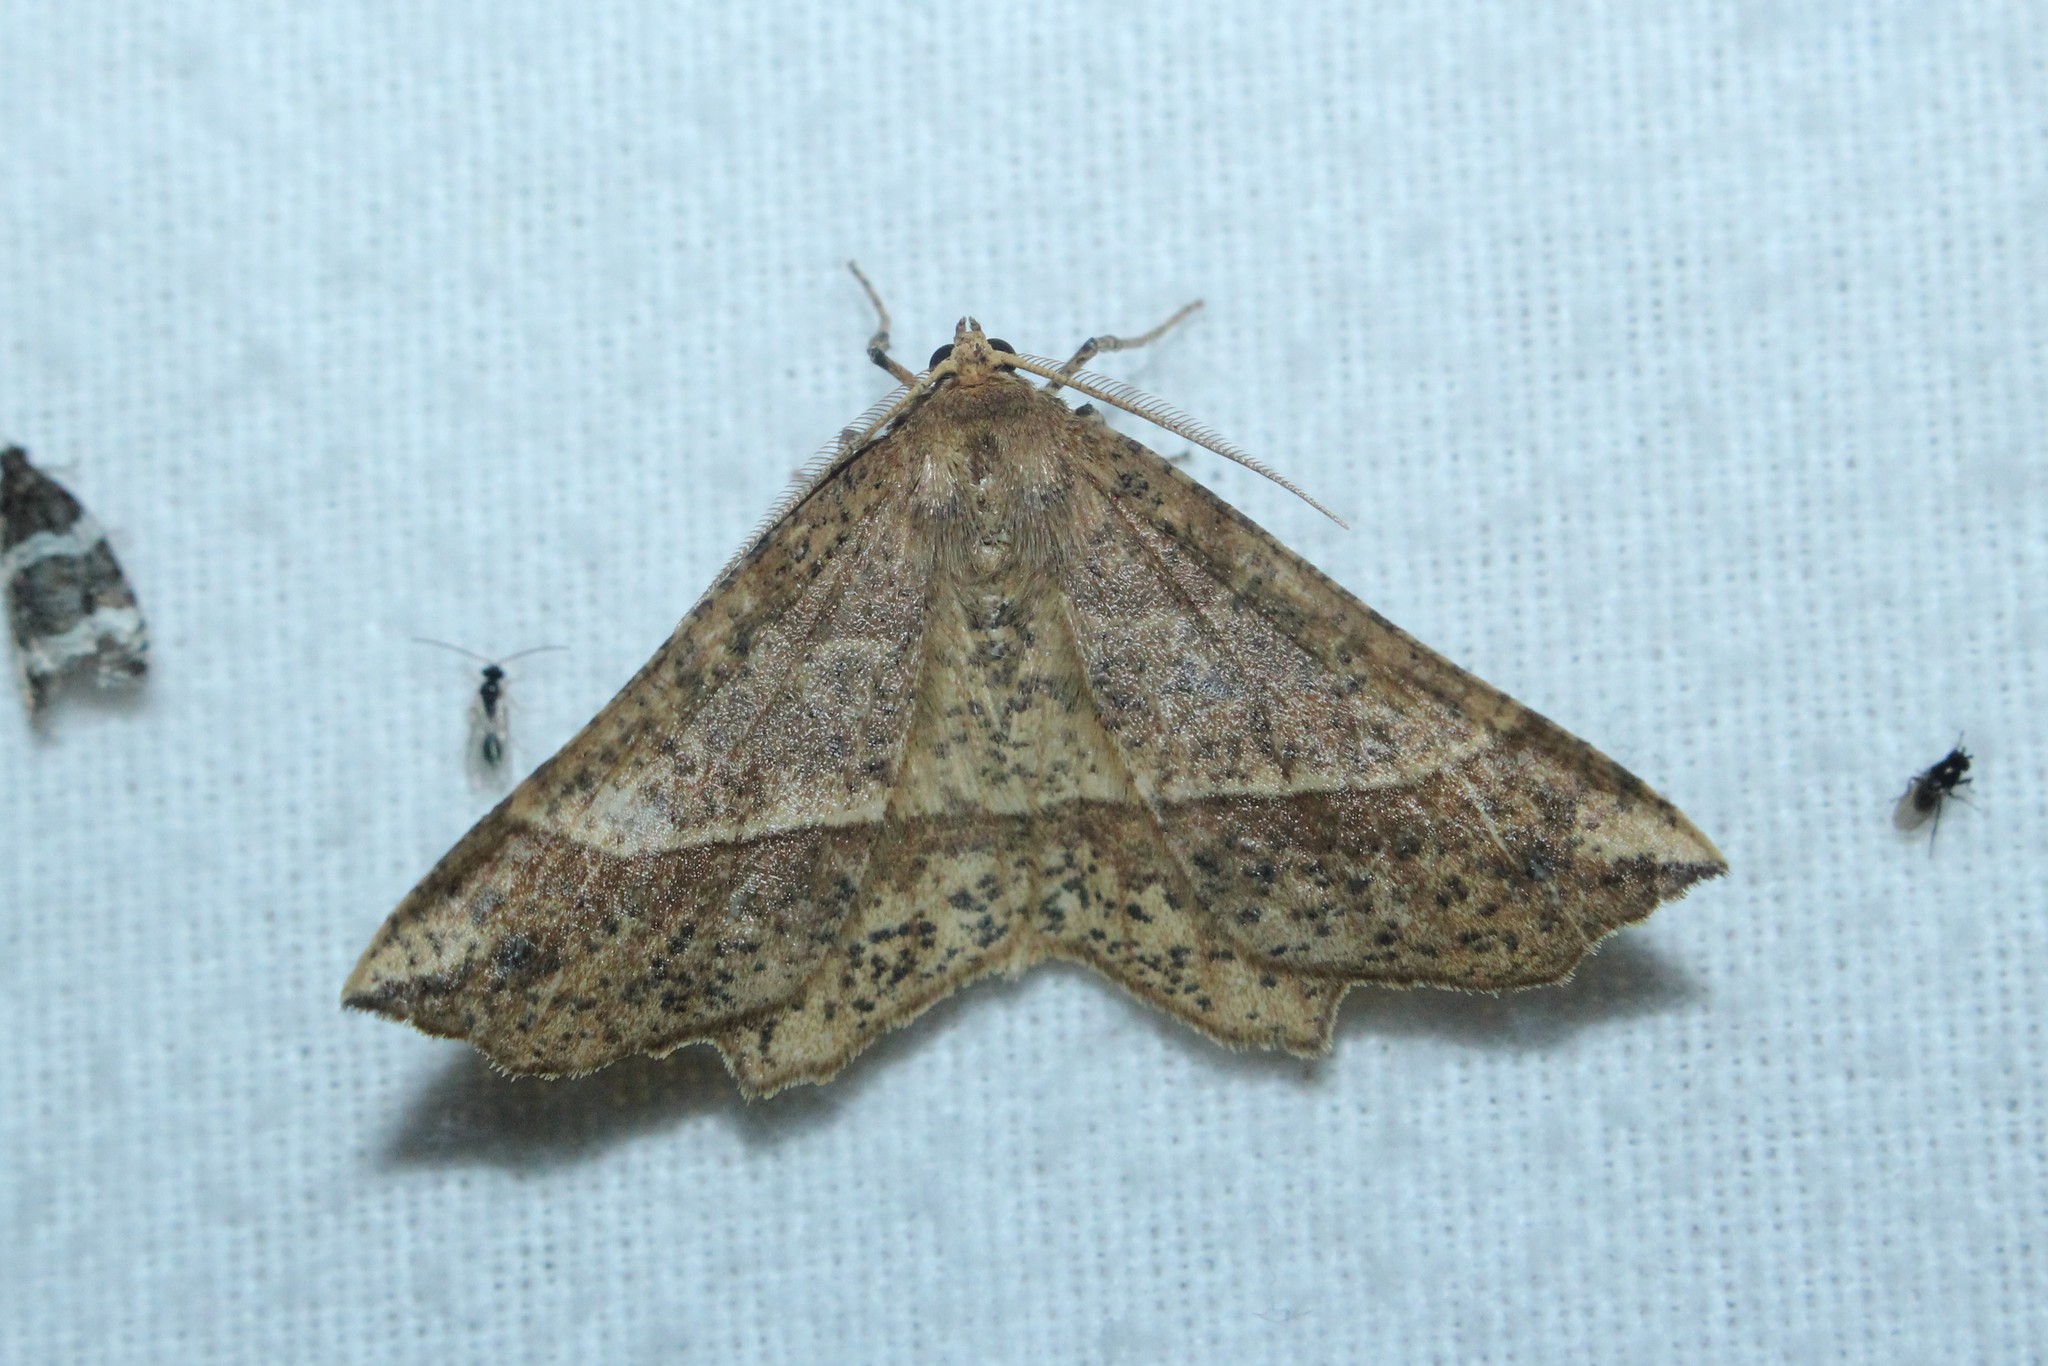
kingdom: Animalia
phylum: Arthropoda
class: Insecta
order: Lepidoptera
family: Geometridae
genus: Euchlaena
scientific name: Euchlaena tigrinaria
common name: Mottled euchlaena moth
